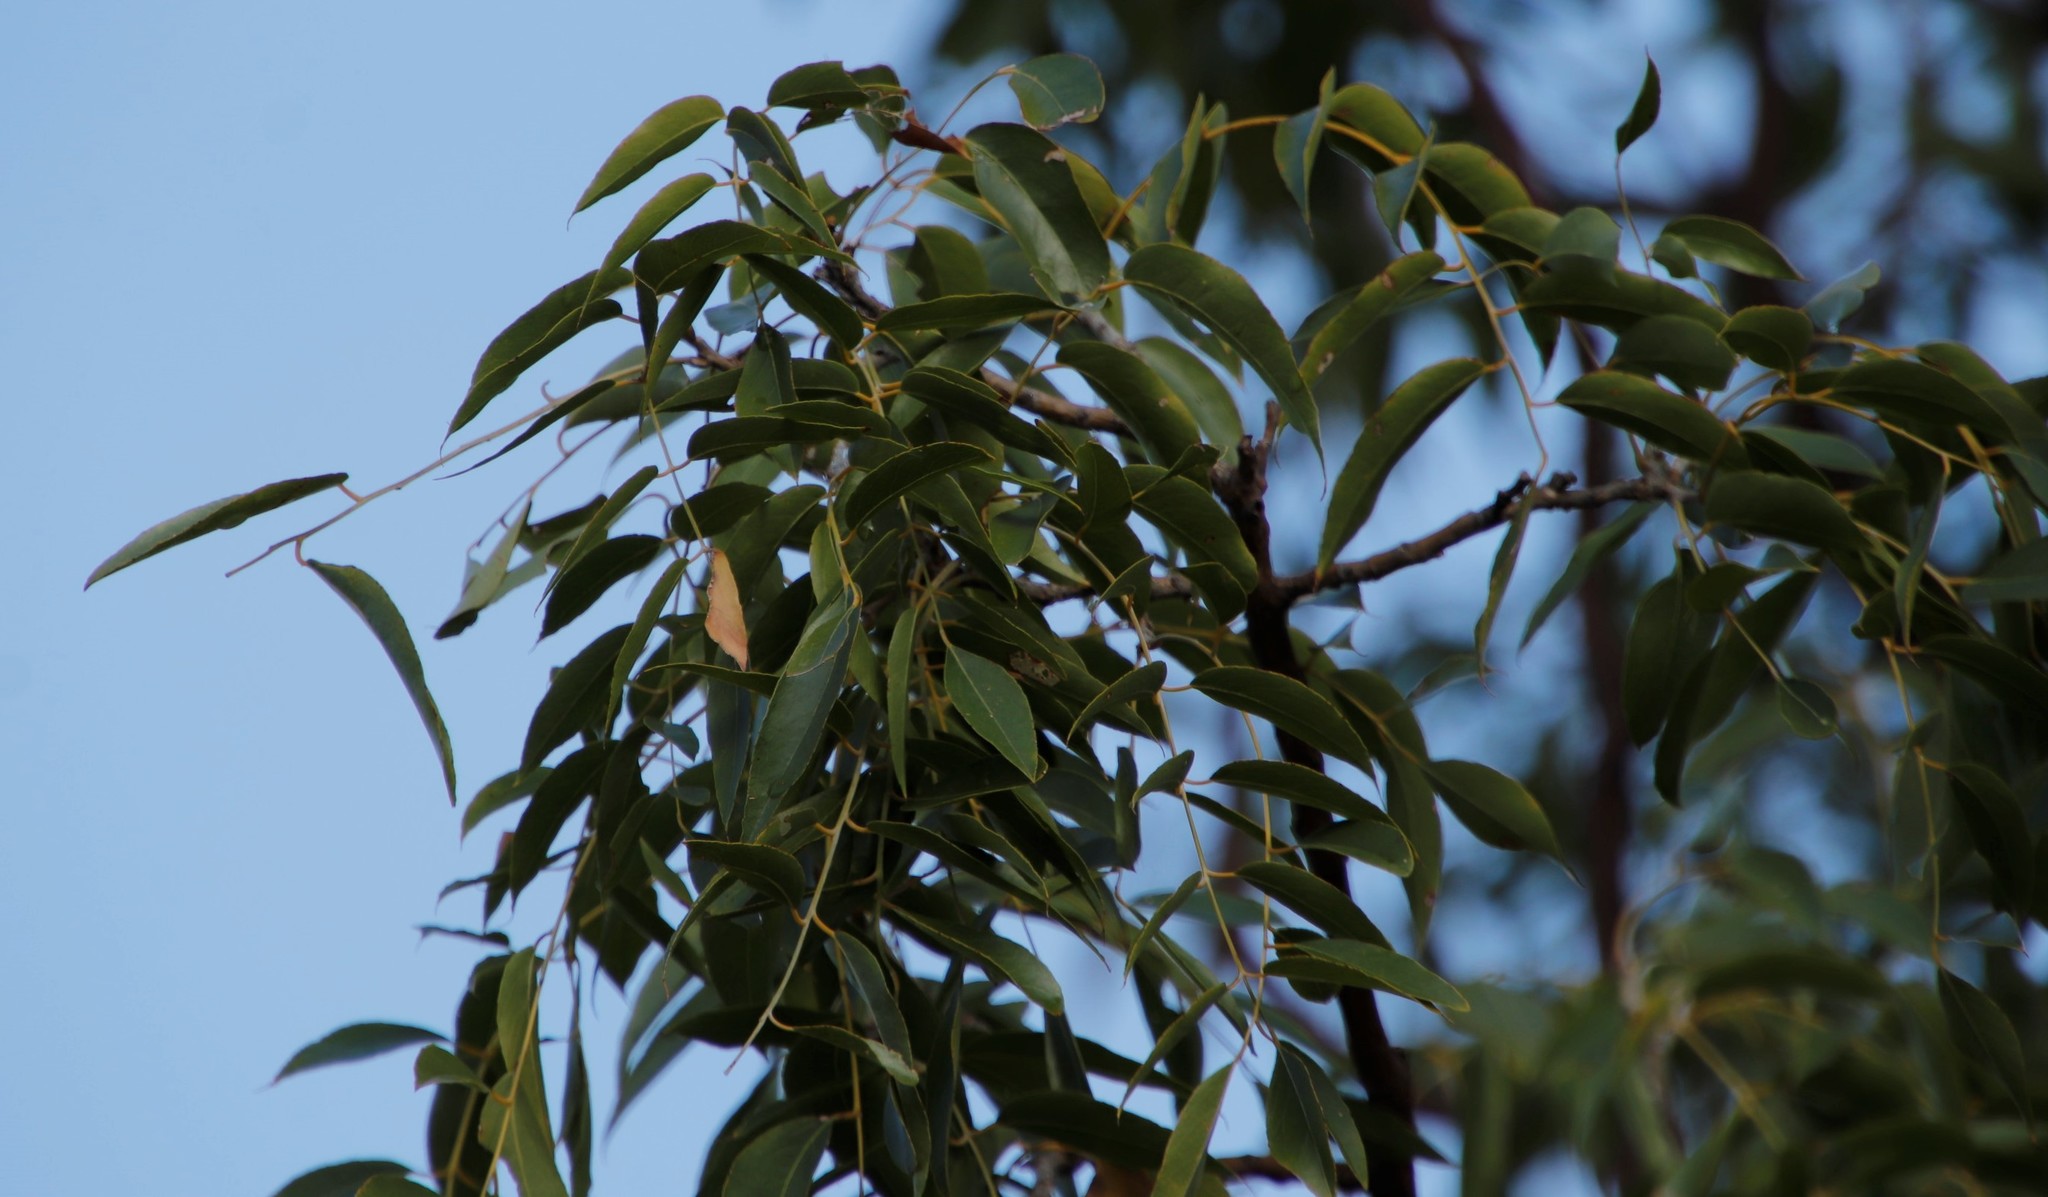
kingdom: Plantae
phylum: Tracheophyta
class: Magnoliopsida
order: Fabales
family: Fabaceae
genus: Bolusanthus
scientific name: Bolusanthus speciosus
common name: Tree wisteria
